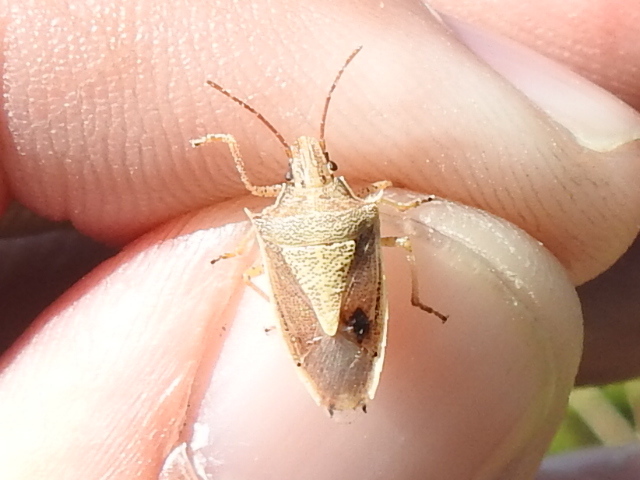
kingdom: Animalia
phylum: Arthropoda
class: Insecta
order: Hemiptera
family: Pentatomidae
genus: Oebalus
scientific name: Oebalus pugnax
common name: Rice stink bug
